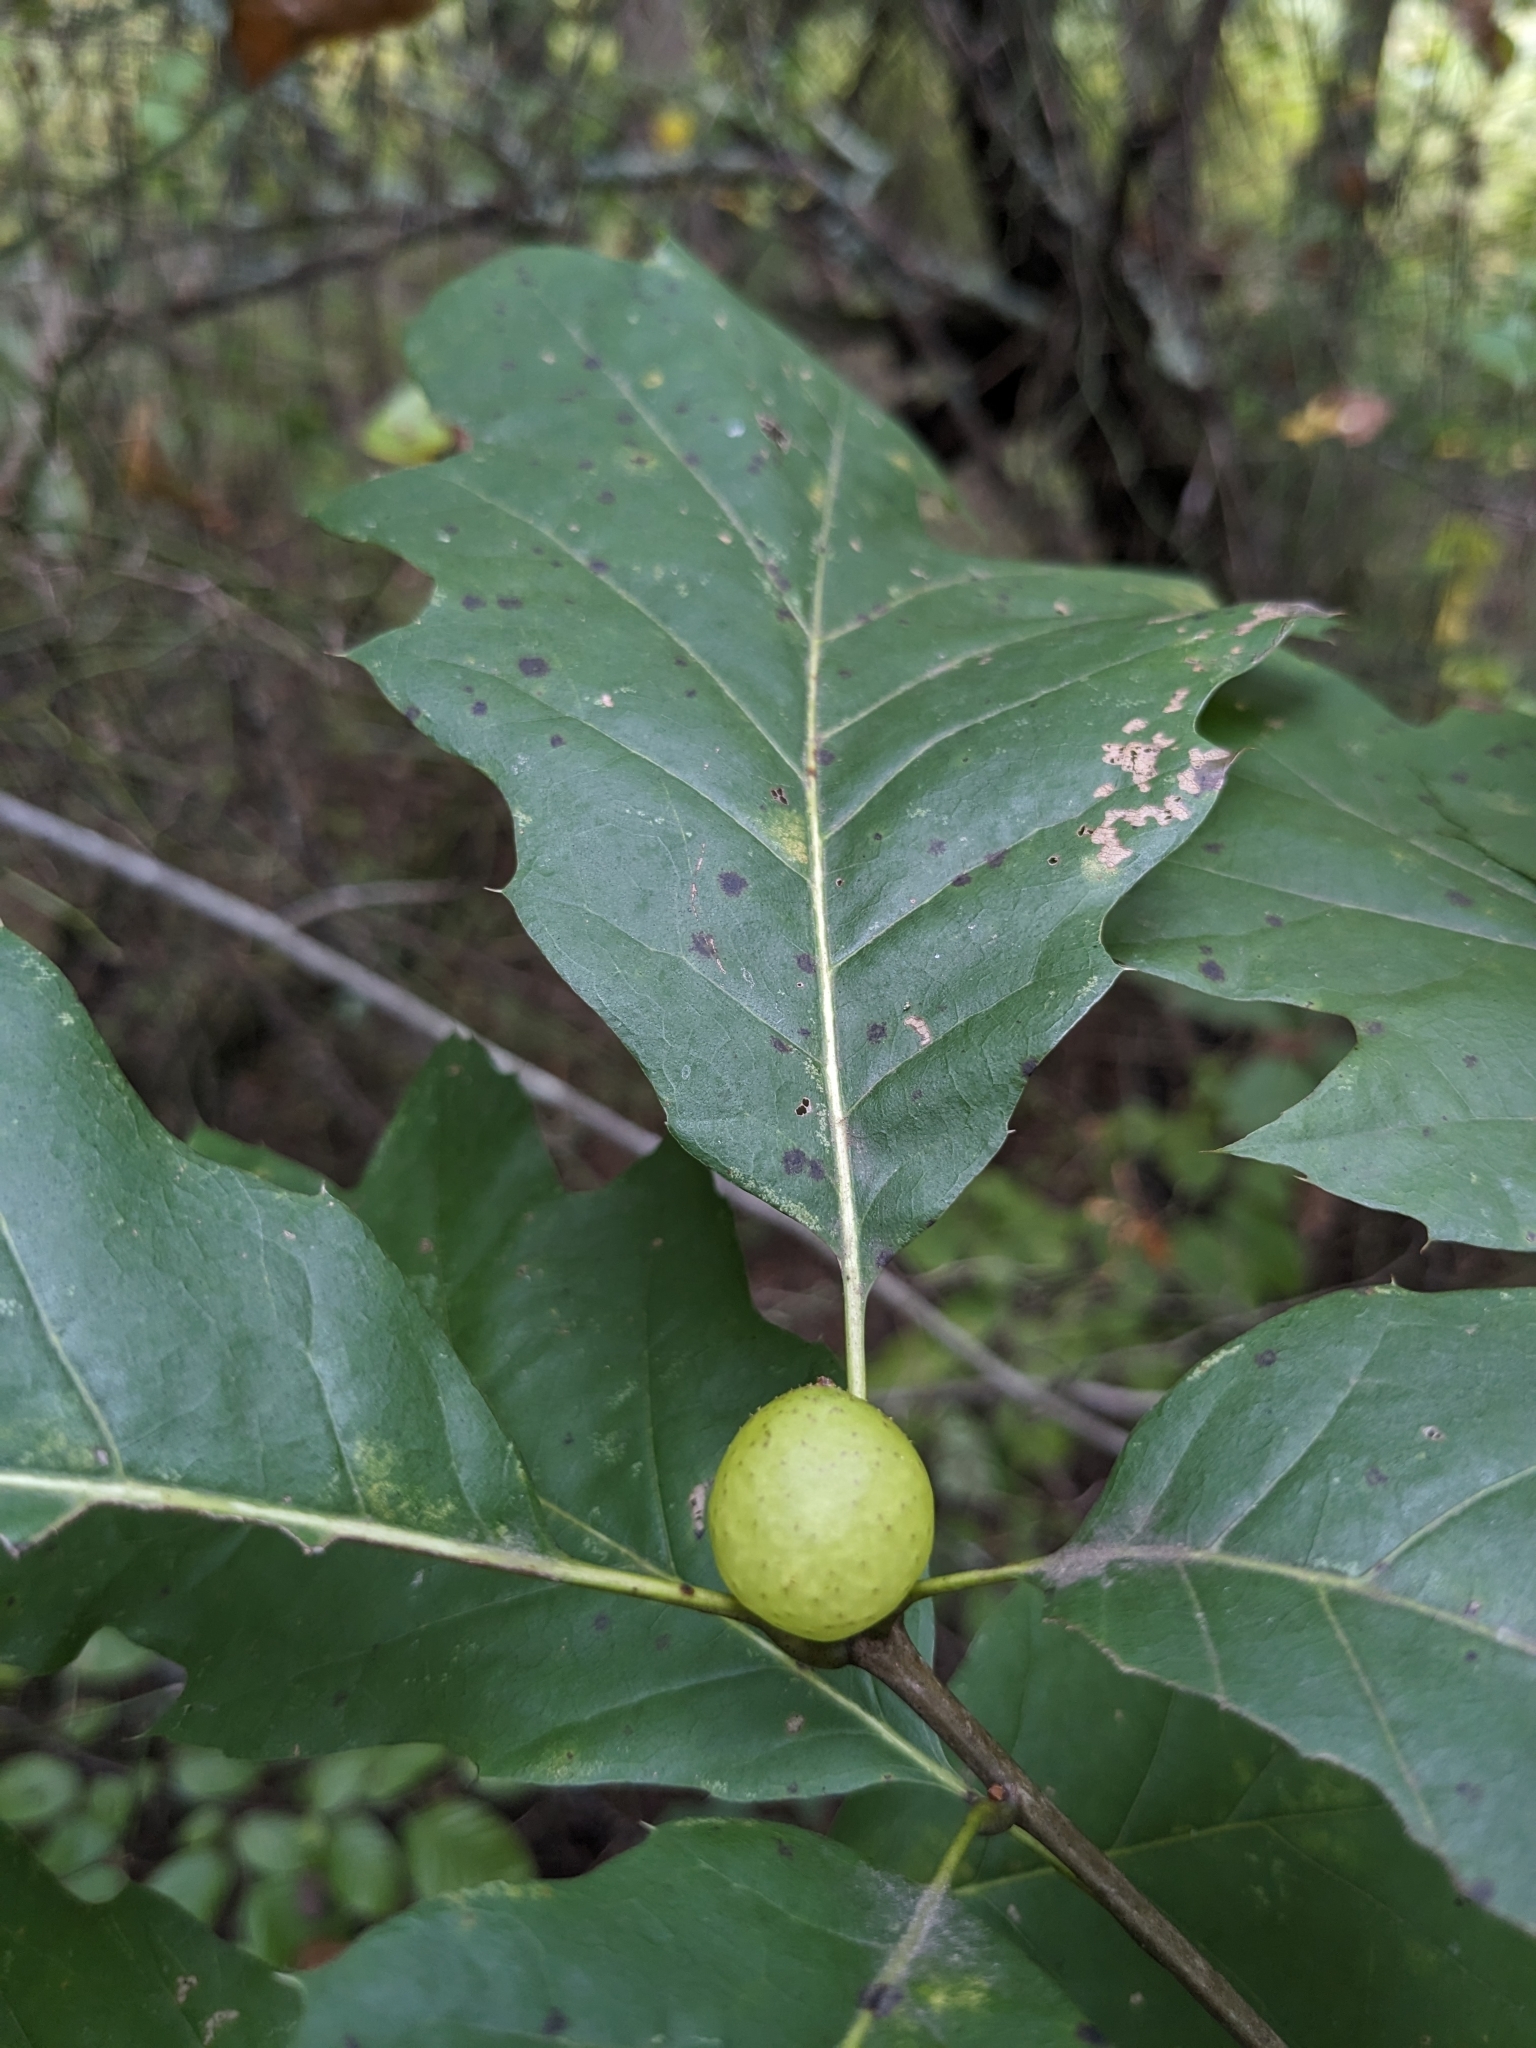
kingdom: Animalia
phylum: Arthropoda
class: Insecta
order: Hymenoptera
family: Cynipidae
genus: Amphibolips
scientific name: Amphibolips
